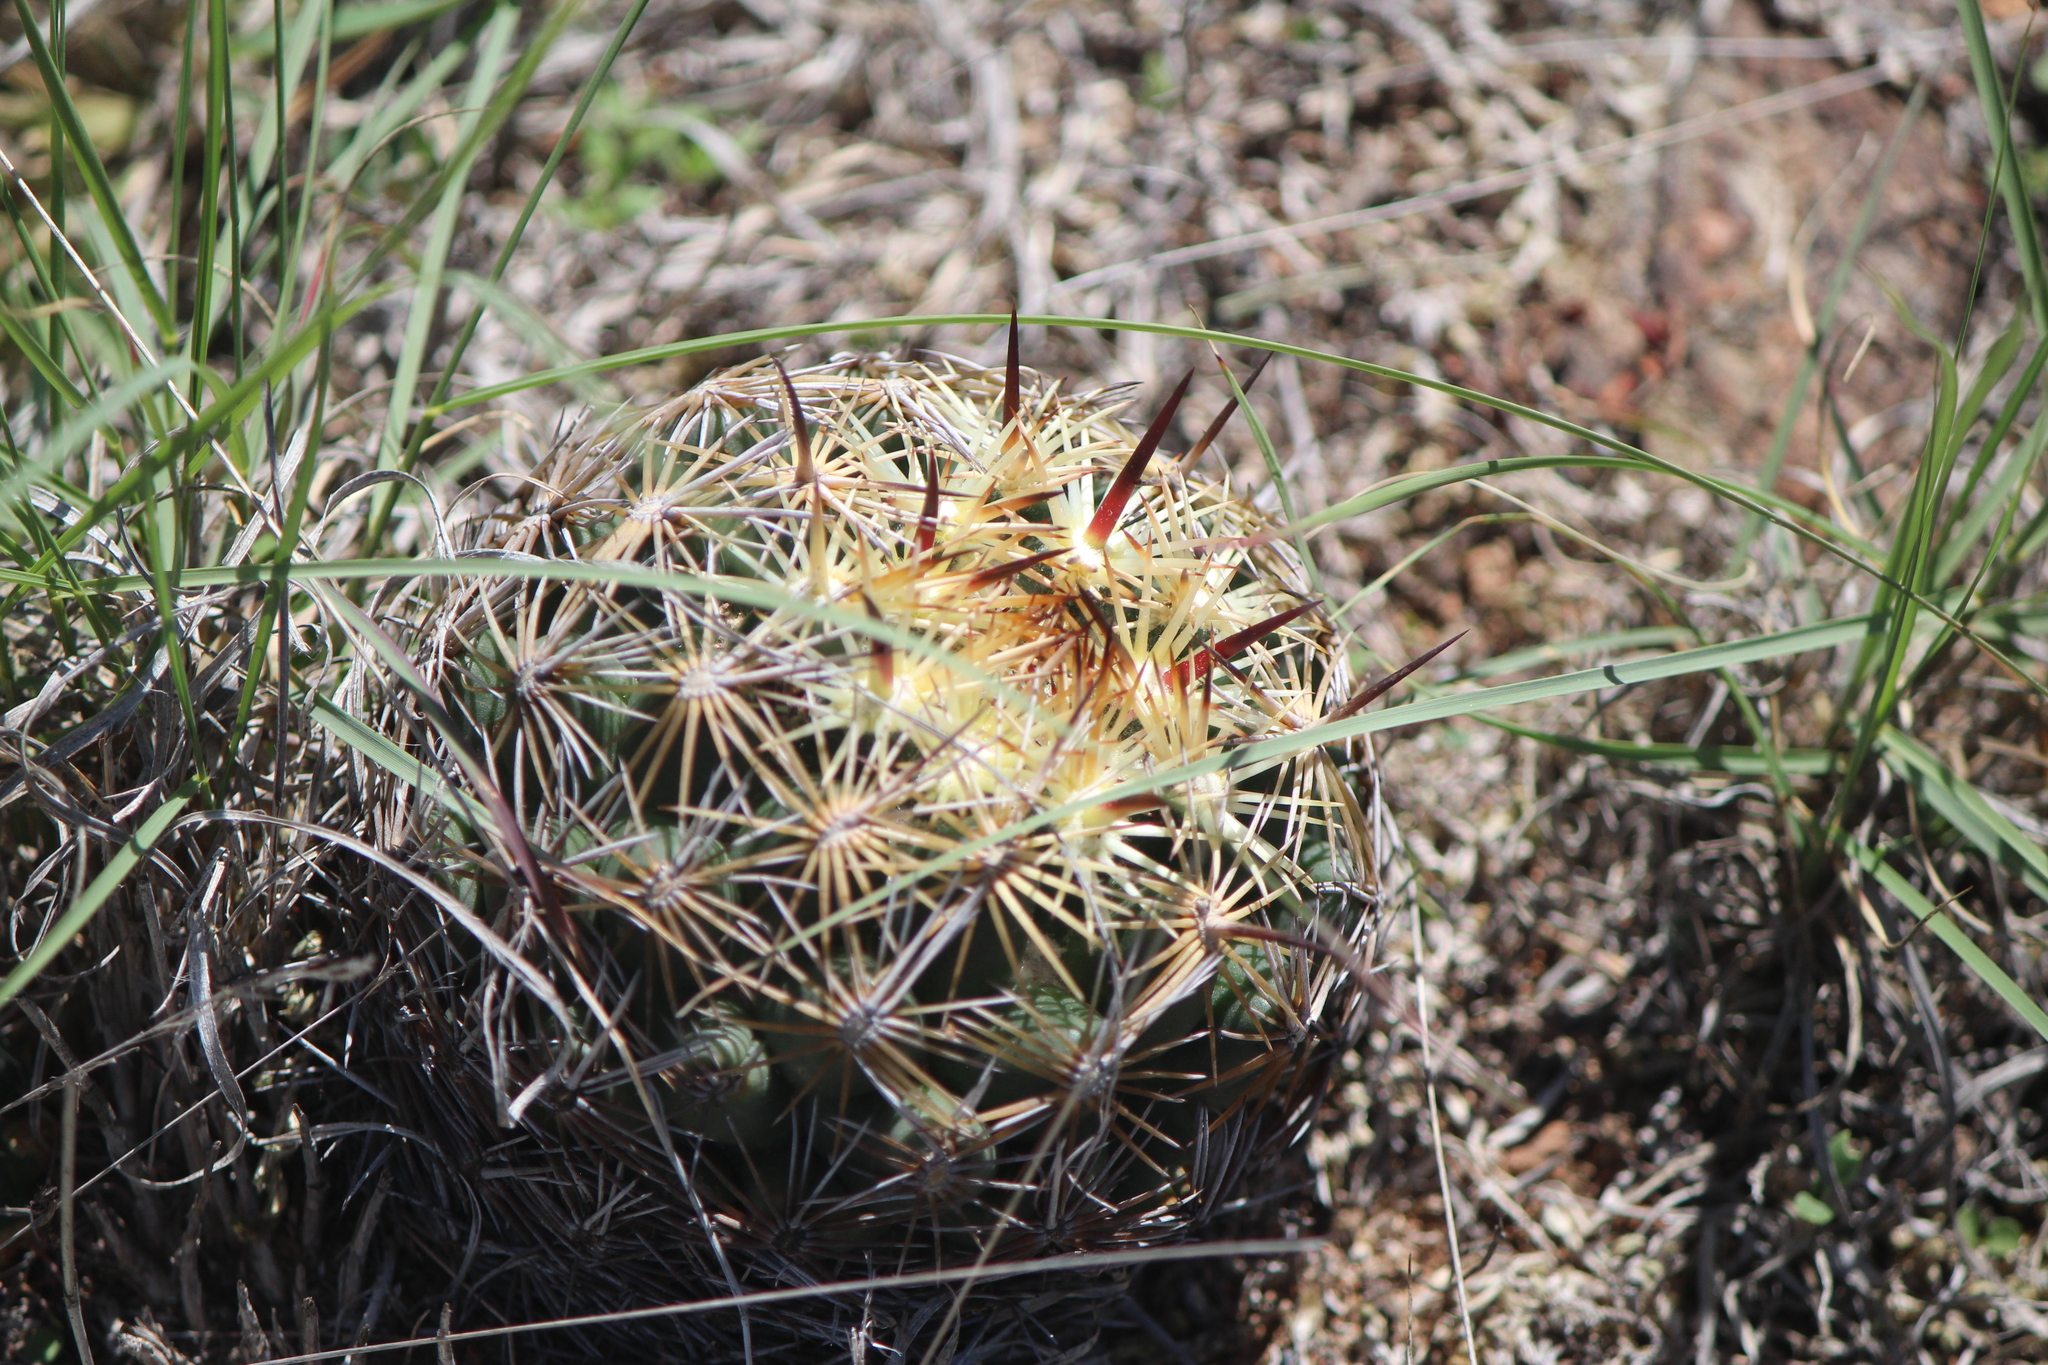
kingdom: Plantae
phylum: Tracheophyta
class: Magnoliopsida
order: Caryophyllales
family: Cactaceae
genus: Coryphantha
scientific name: Coryphantha cornifera
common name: Rhinoceros cactus
